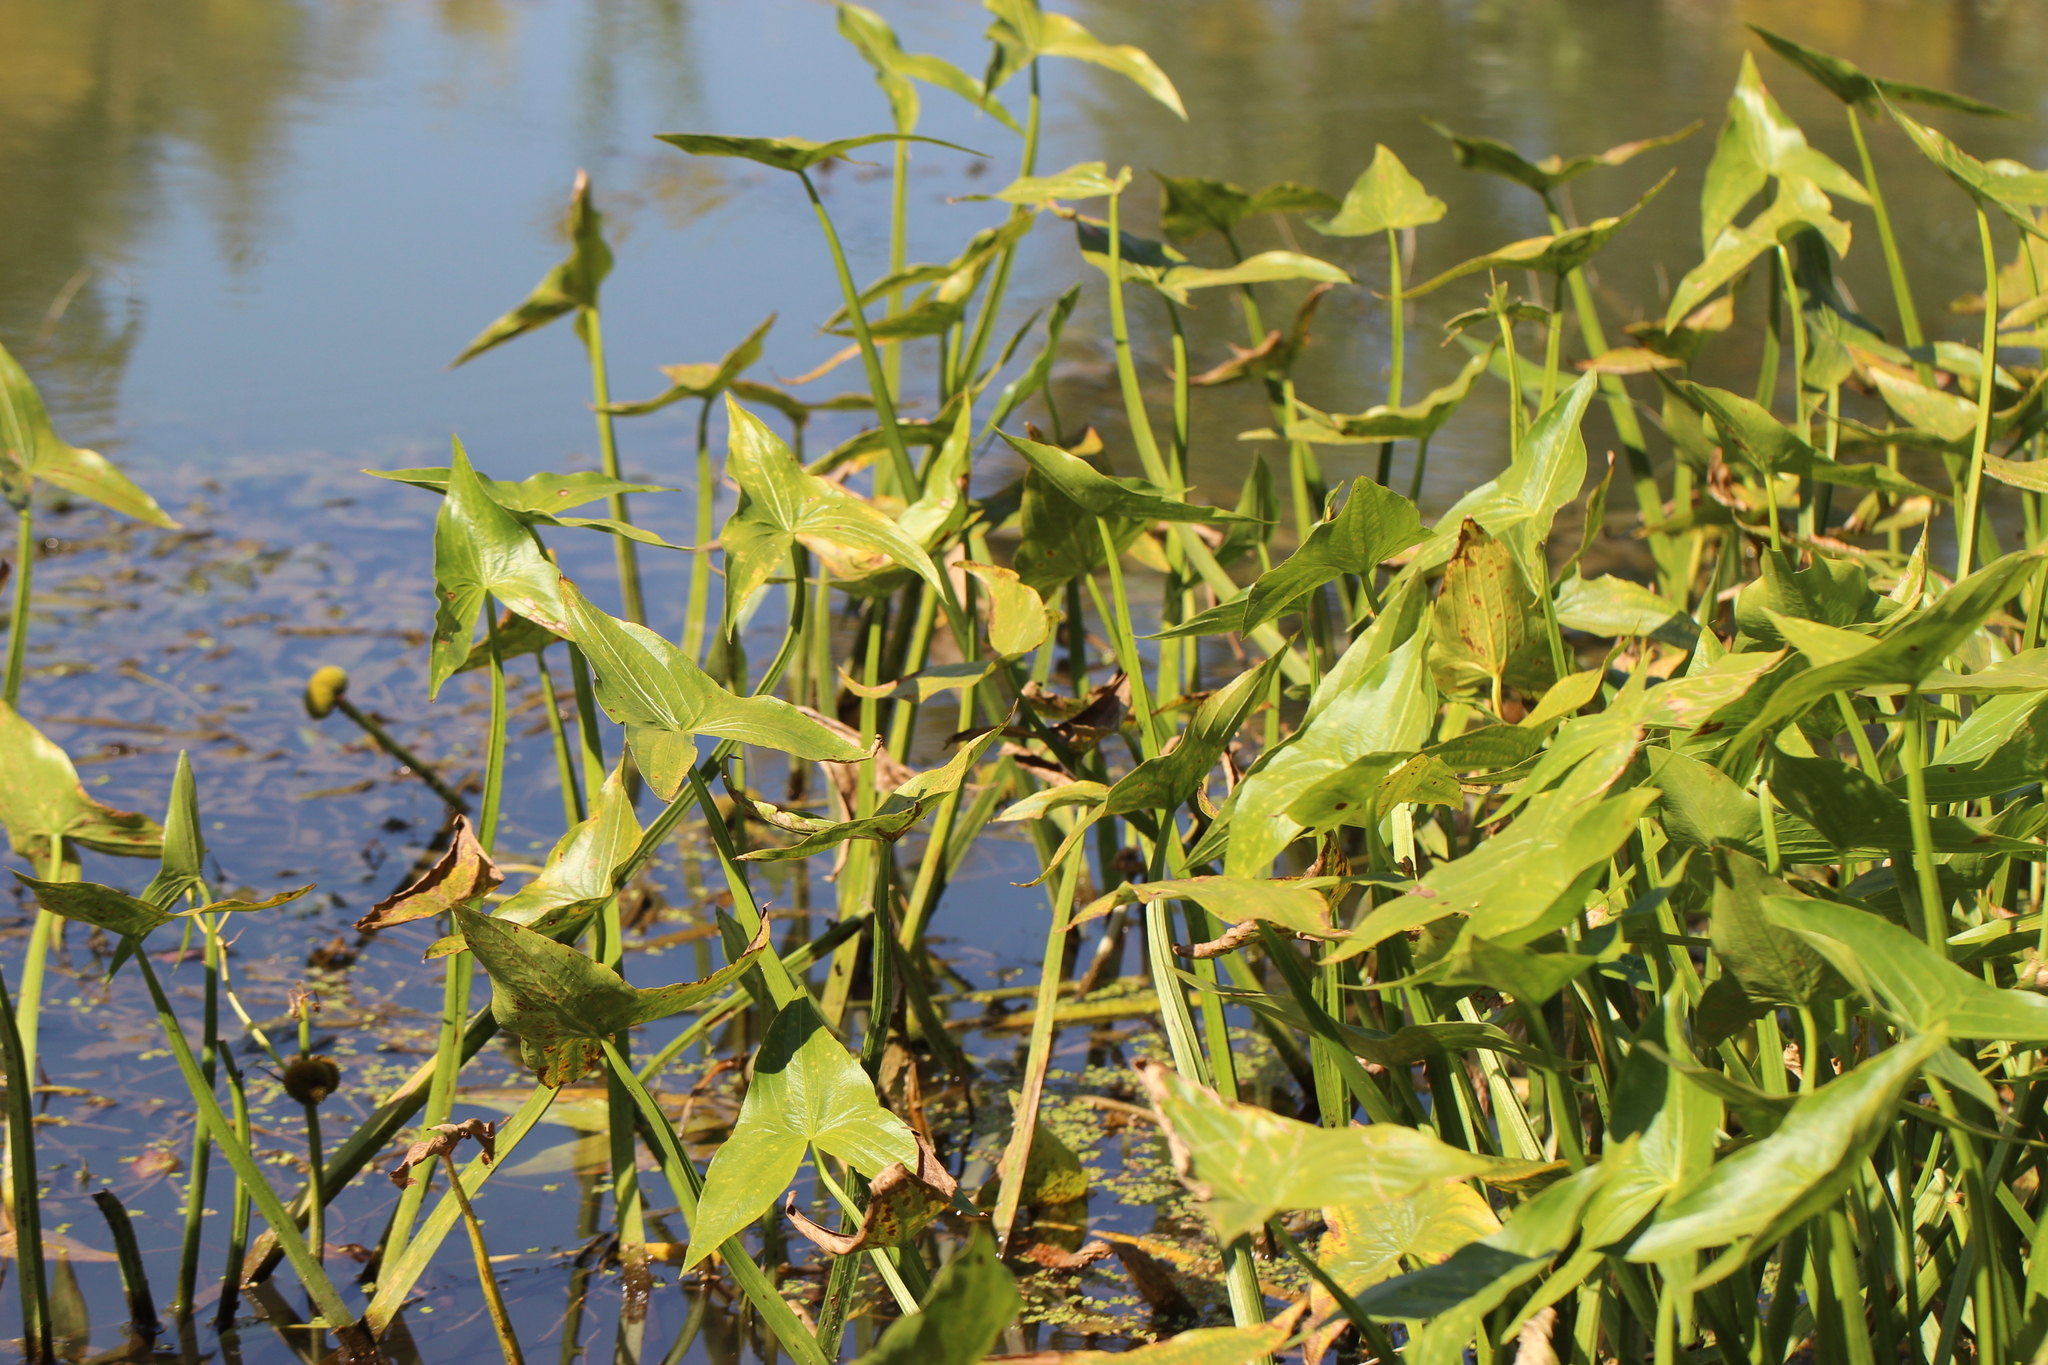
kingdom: Plantae
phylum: Tracheophyta
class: Liliopsida
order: Alismatales
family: Alismataceae
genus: Sagittaria
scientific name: Sagittaria sagittifolia
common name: Arrowhead
